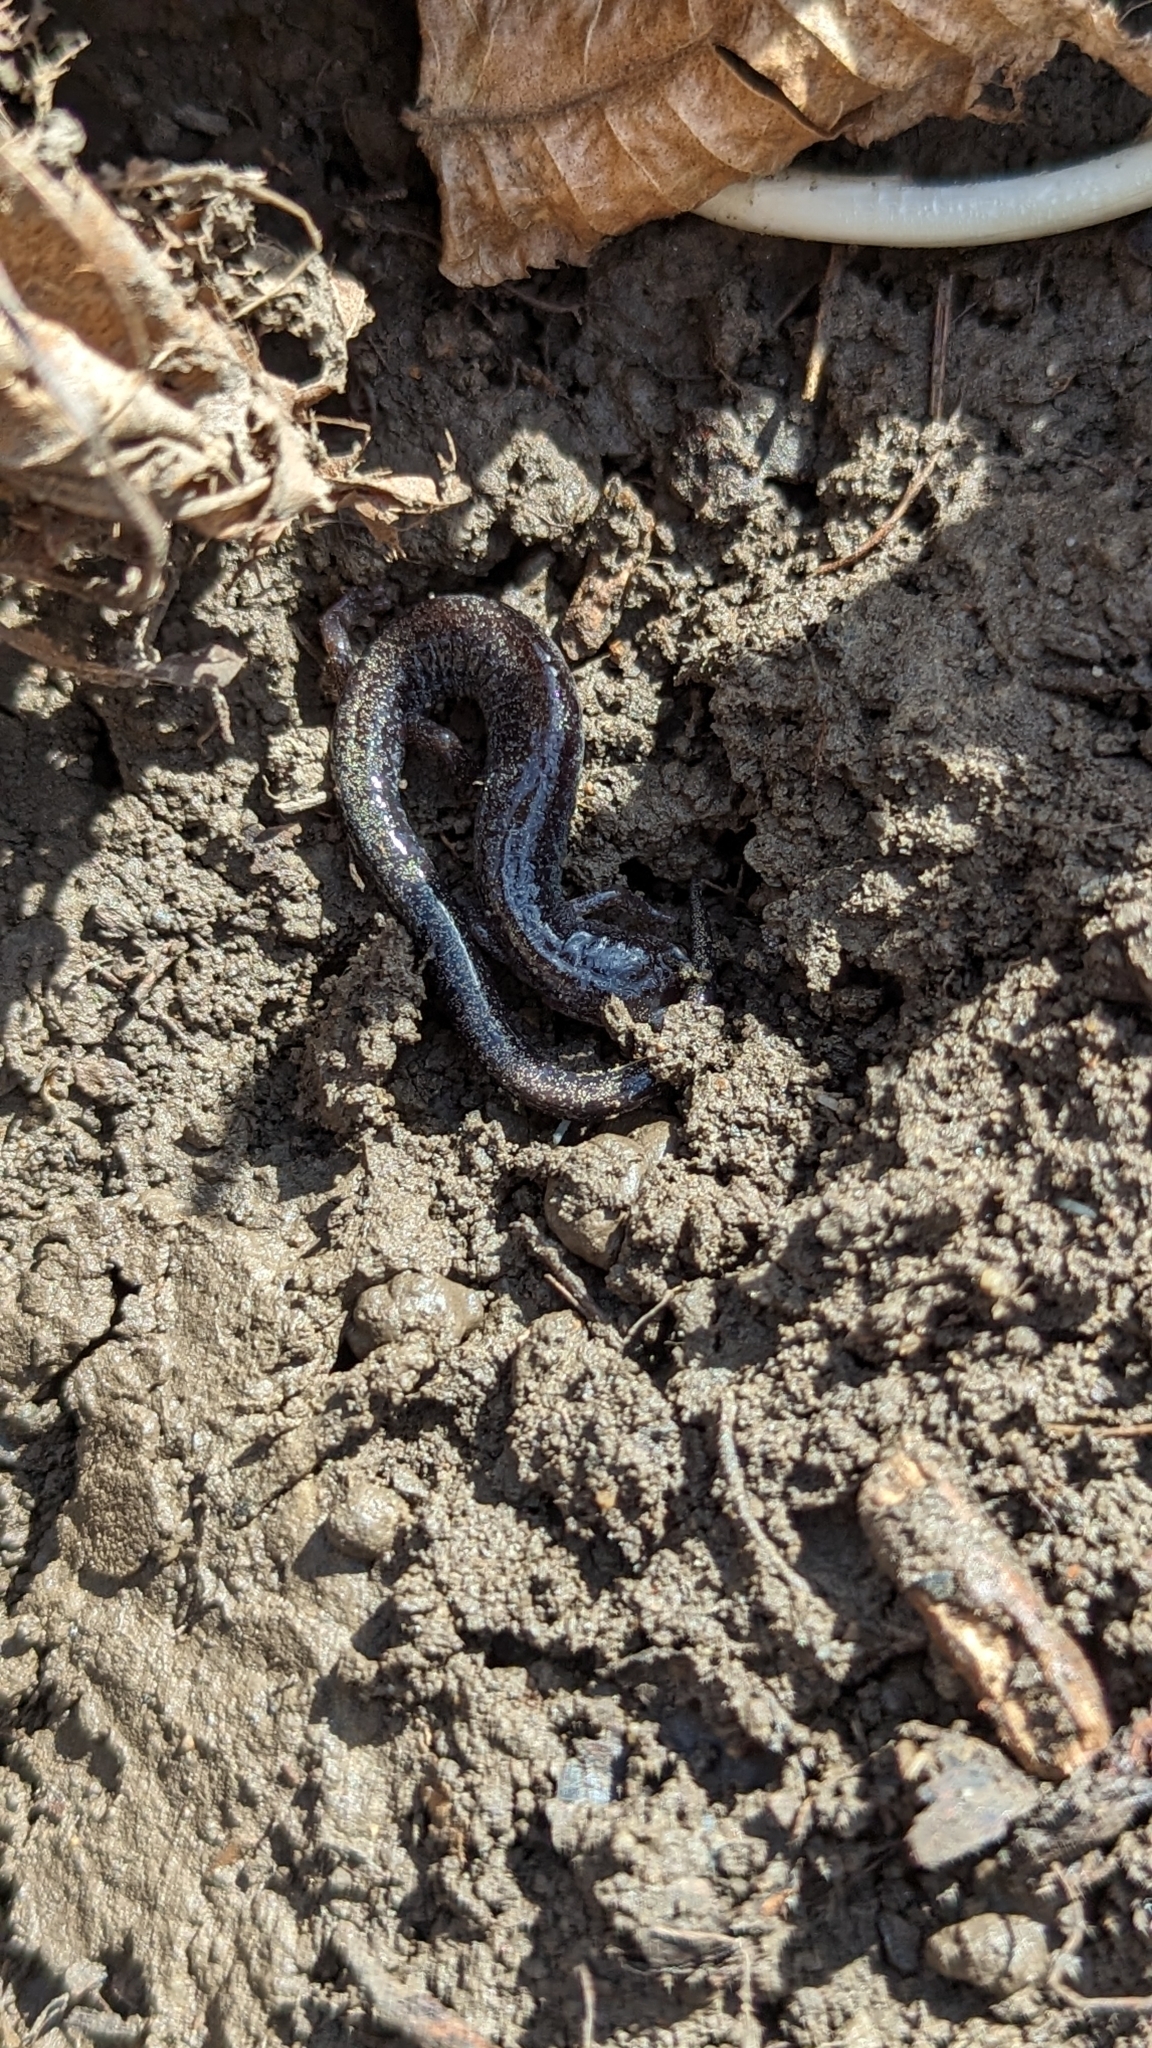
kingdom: Animalia
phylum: Chordata
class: Amphibia
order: Caudata
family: Plethodontidae
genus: Plethodon
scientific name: Plethodon cinereus
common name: Redback salamander
